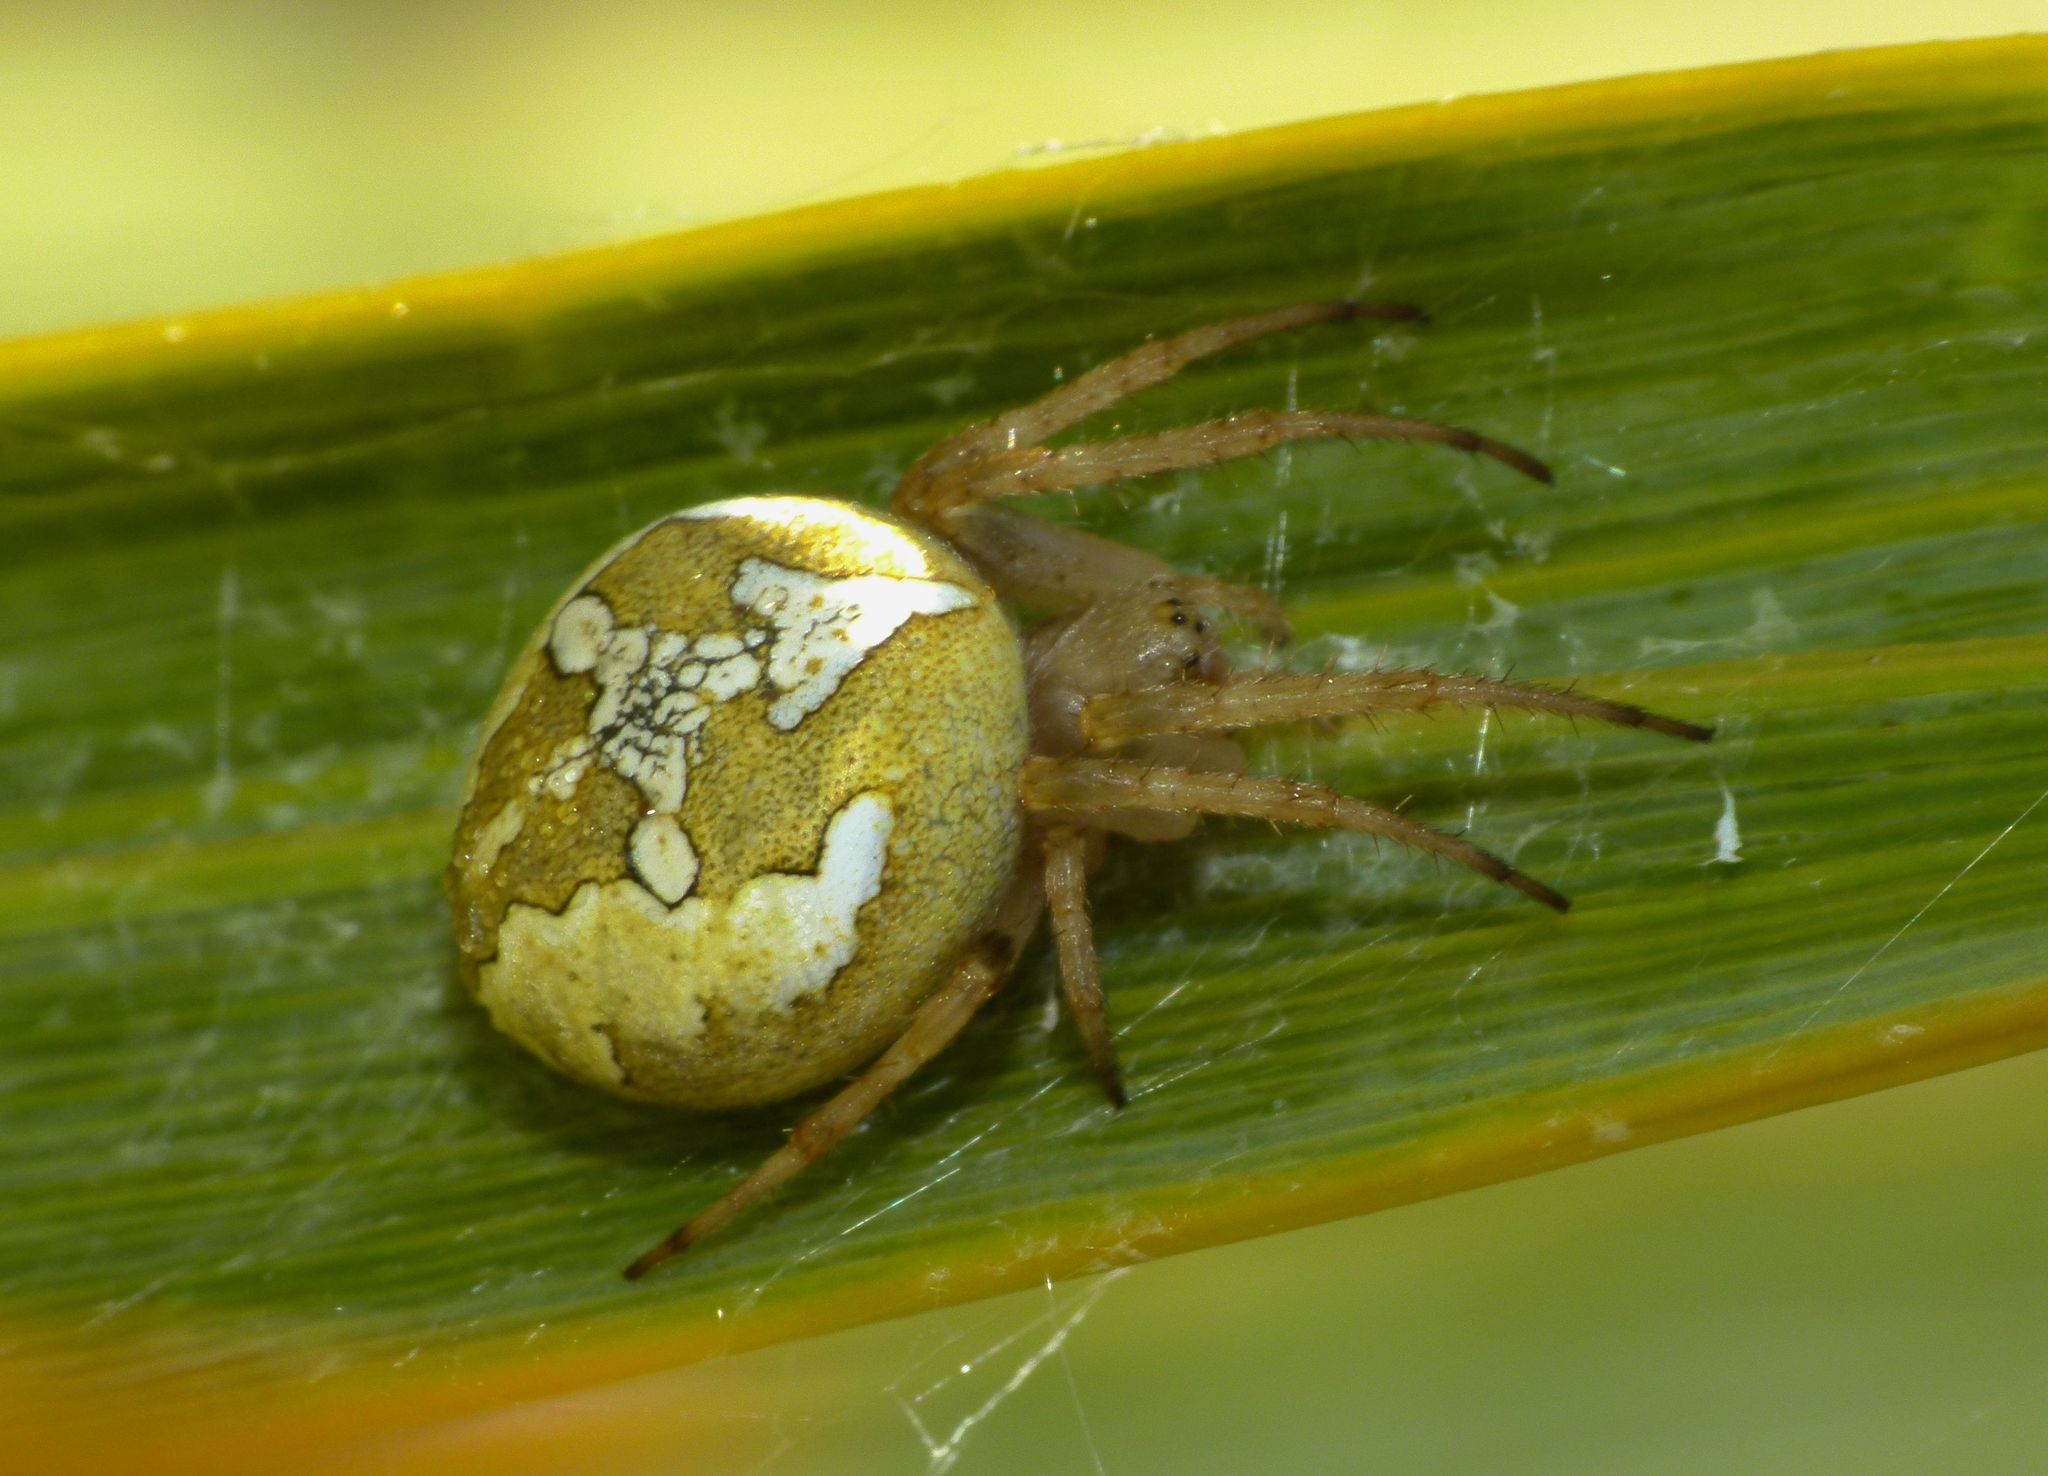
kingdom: Animalia
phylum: Arthropoda
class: Arachnida
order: Araneae
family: Araneidae
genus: Colaranea
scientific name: Colaranea verutum
